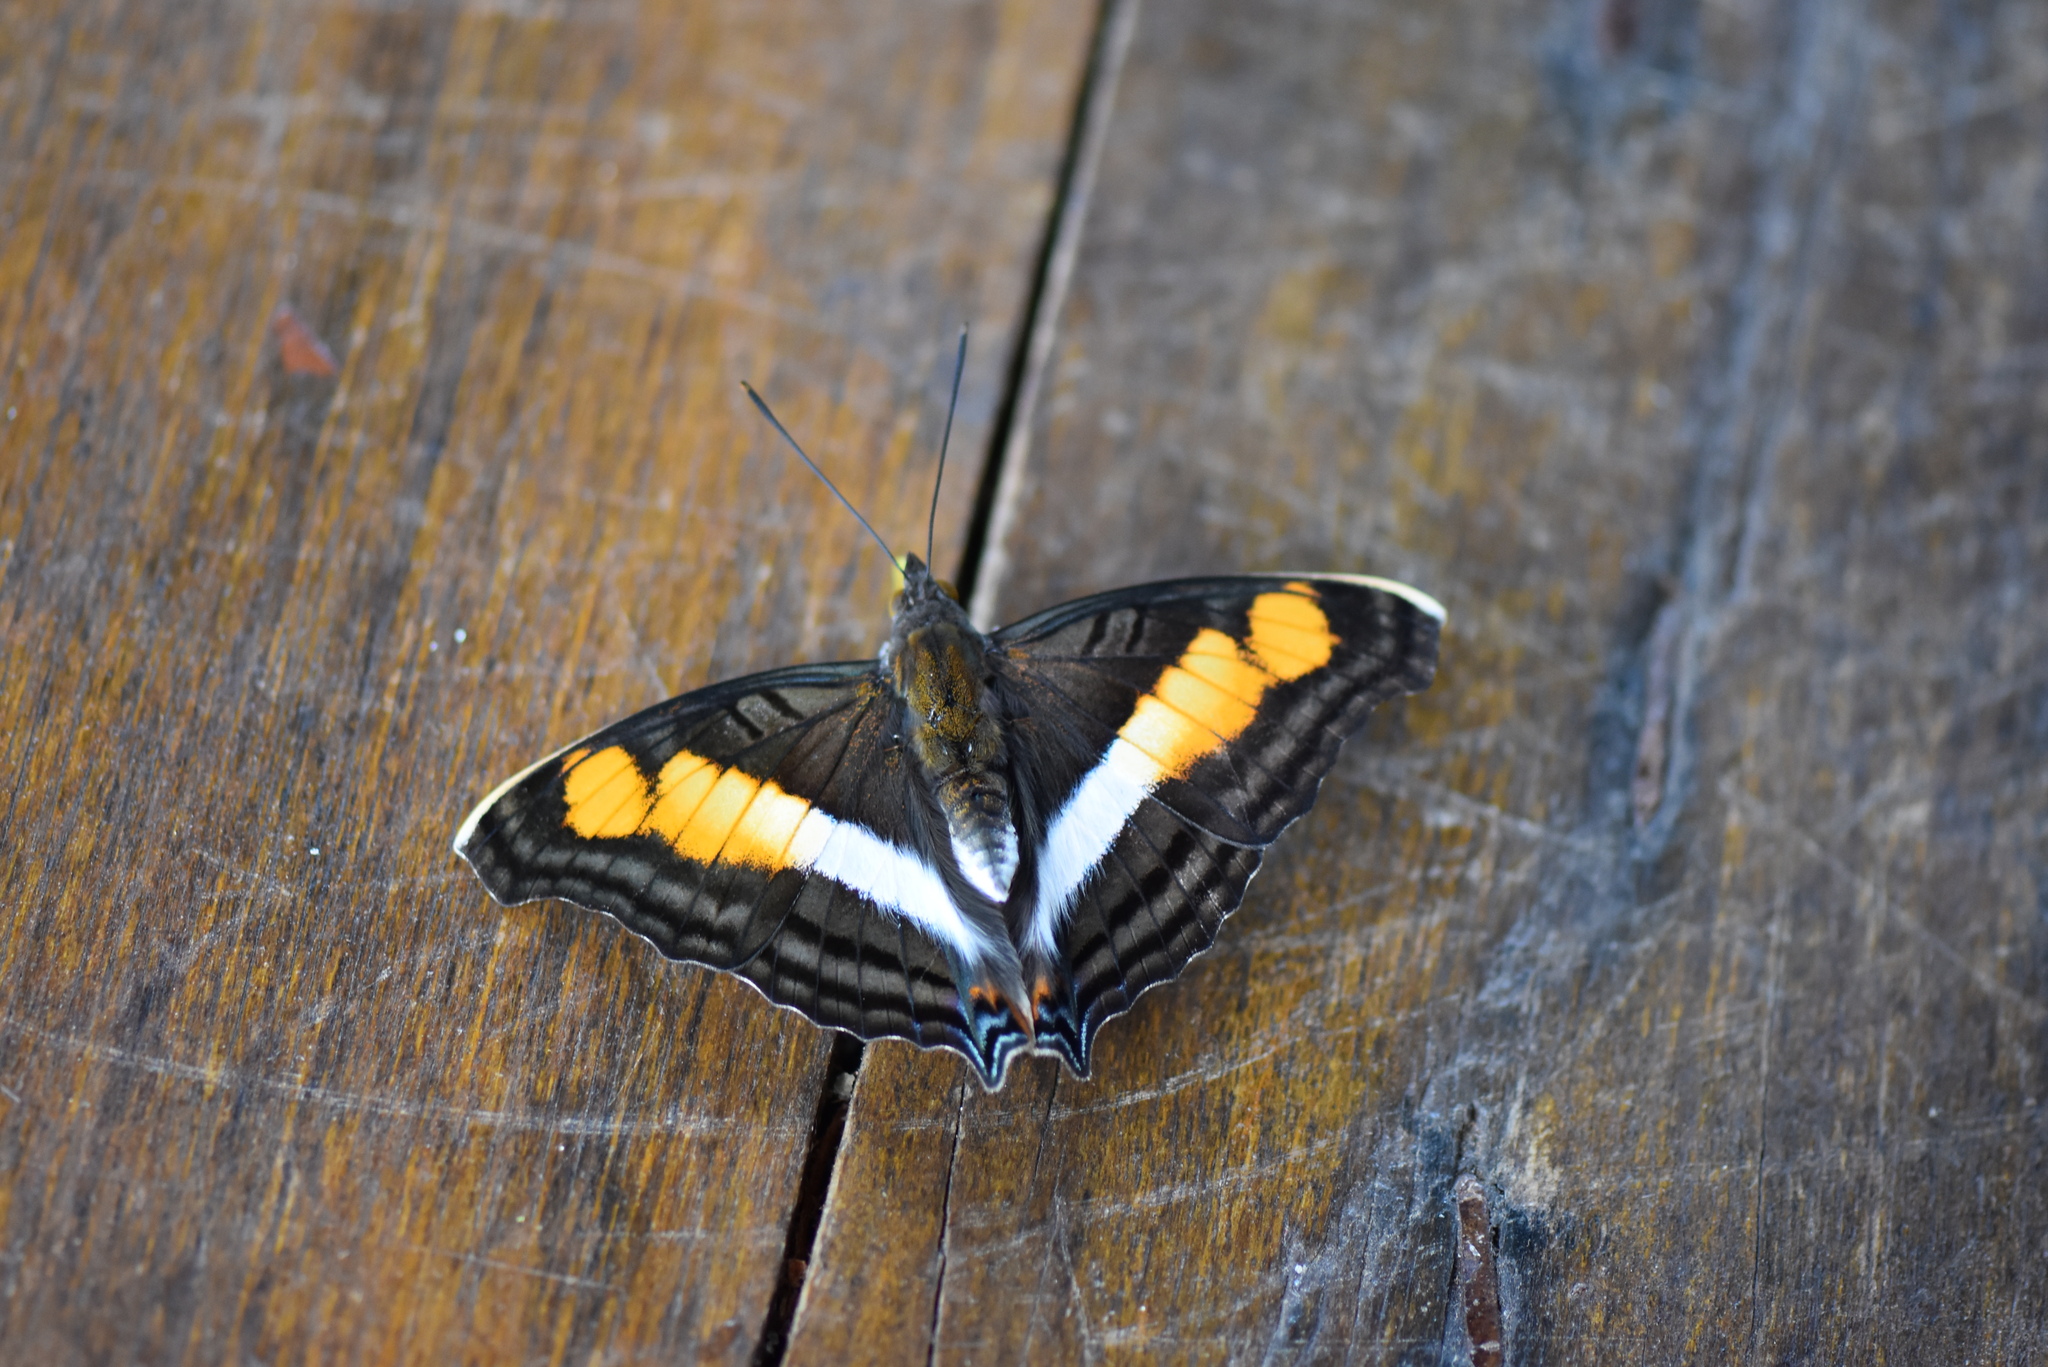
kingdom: Animalia
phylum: Arthropoda
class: Insecta
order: Lepidoptera
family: Nymphalidae
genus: Doxocopa
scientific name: Doxocopa linda
